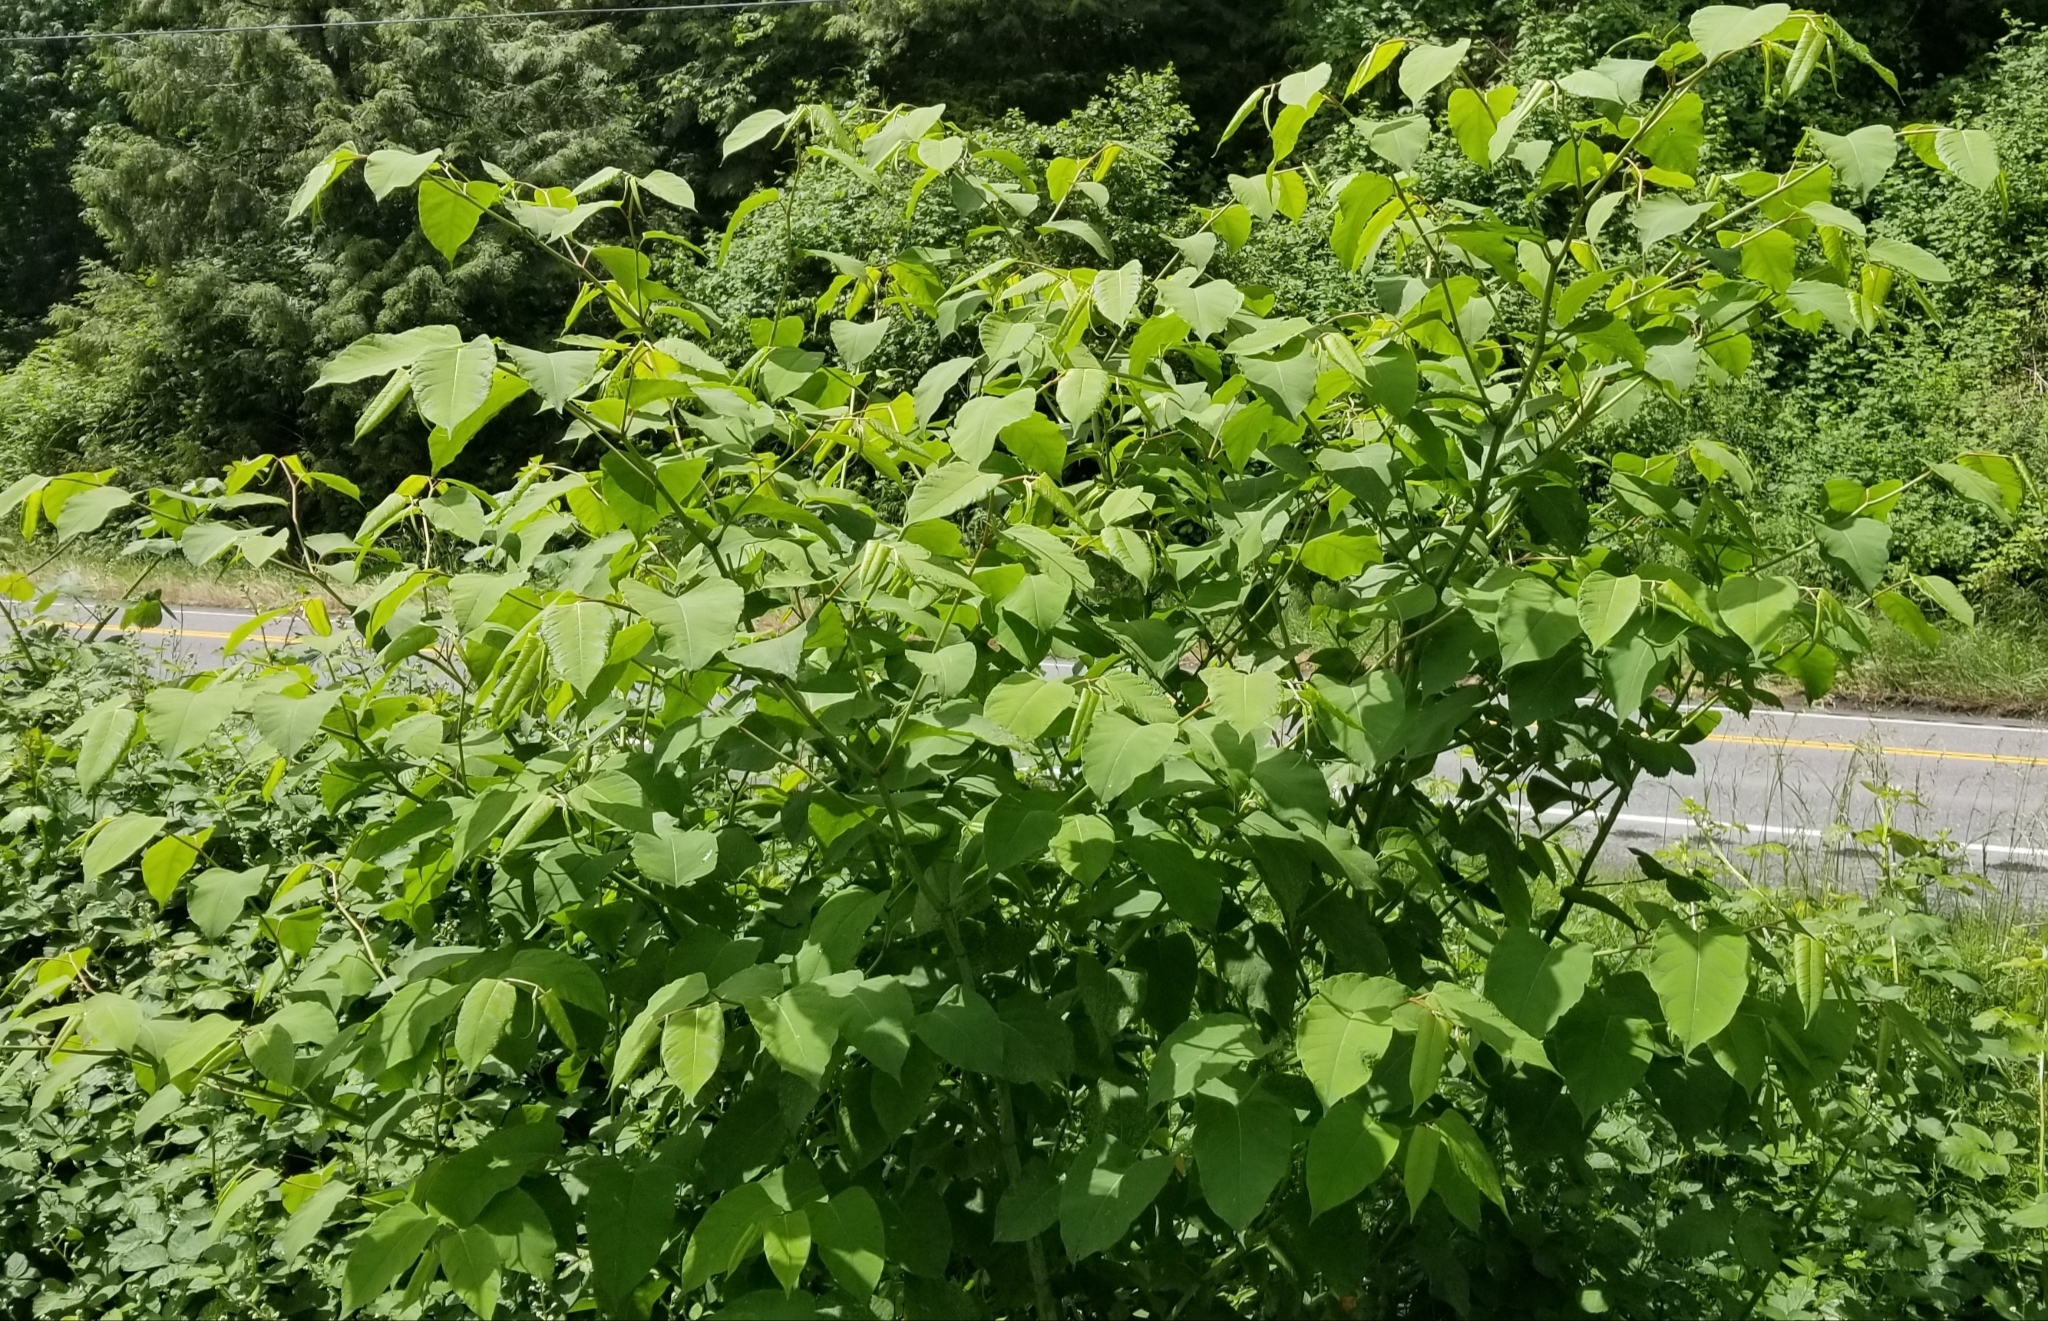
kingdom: Plantae
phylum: Tracheophyta
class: Magnoliopsida
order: Caryophyllales
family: Polygonaceae
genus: Reynoutria
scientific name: Reynoutria bohemica
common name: Bohemian knotweed
